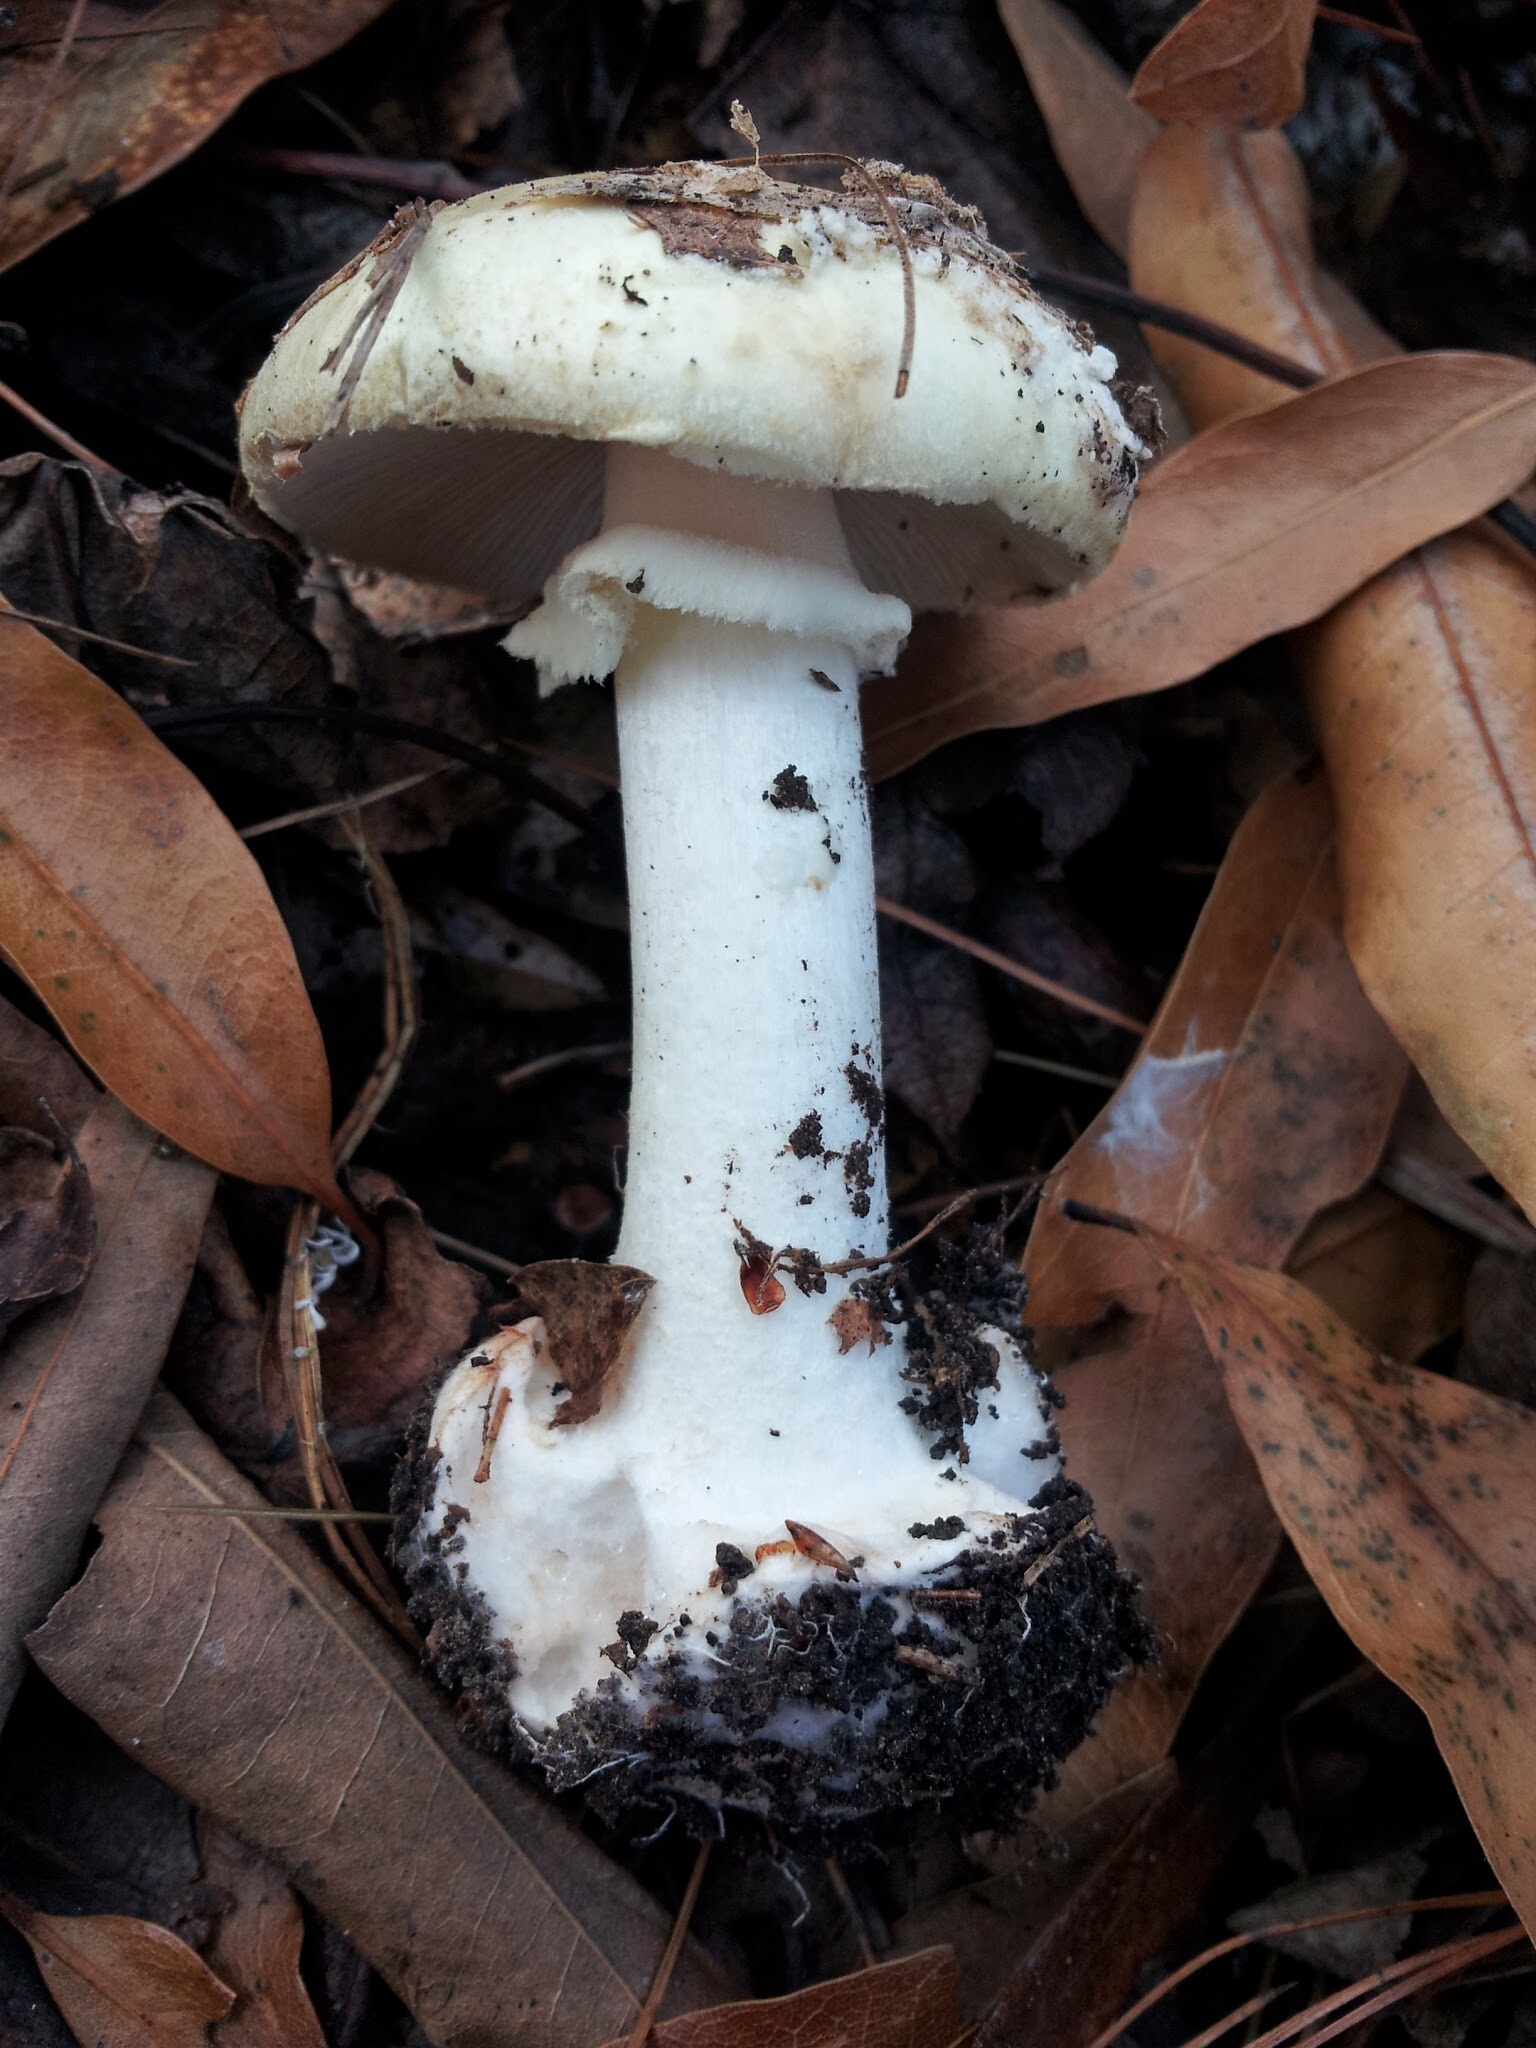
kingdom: Fungi
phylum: Basidiomycota
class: Agaricomycetes
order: Agaricales
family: Amanitaceae
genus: Amanita
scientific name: Amanita citrina
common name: False death-cap
